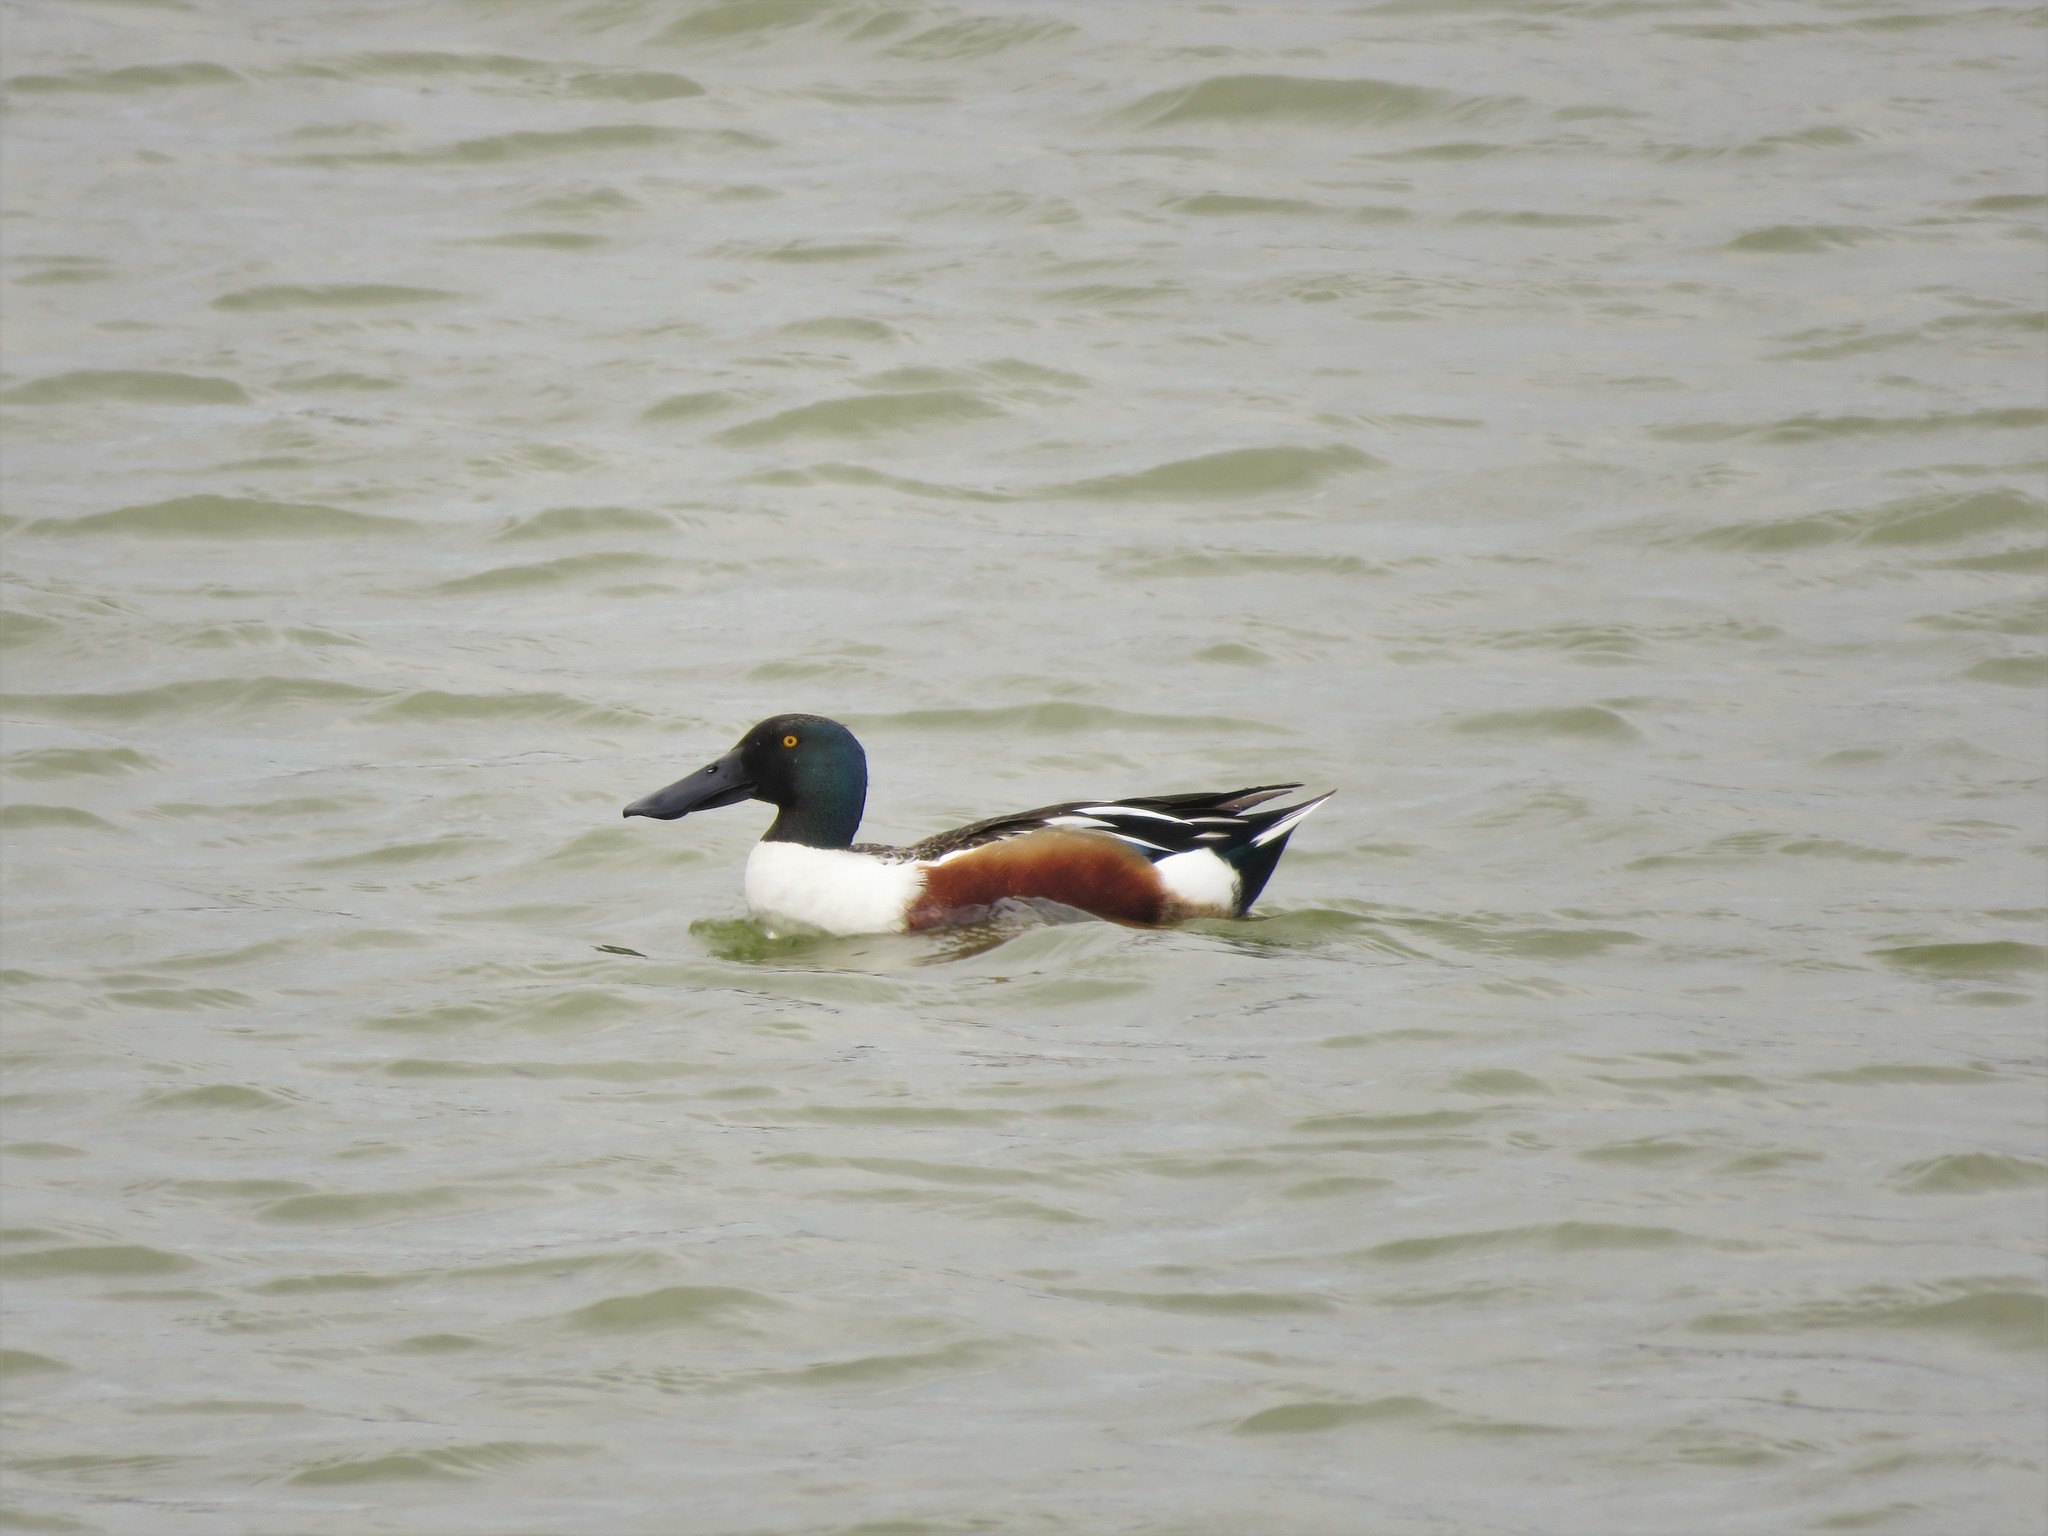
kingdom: Animalia
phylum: Chordata
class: Aves
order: Anseriformes
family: Anatidae
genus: Spatula
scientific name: Spatula clypeata
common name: Northern shoveler
